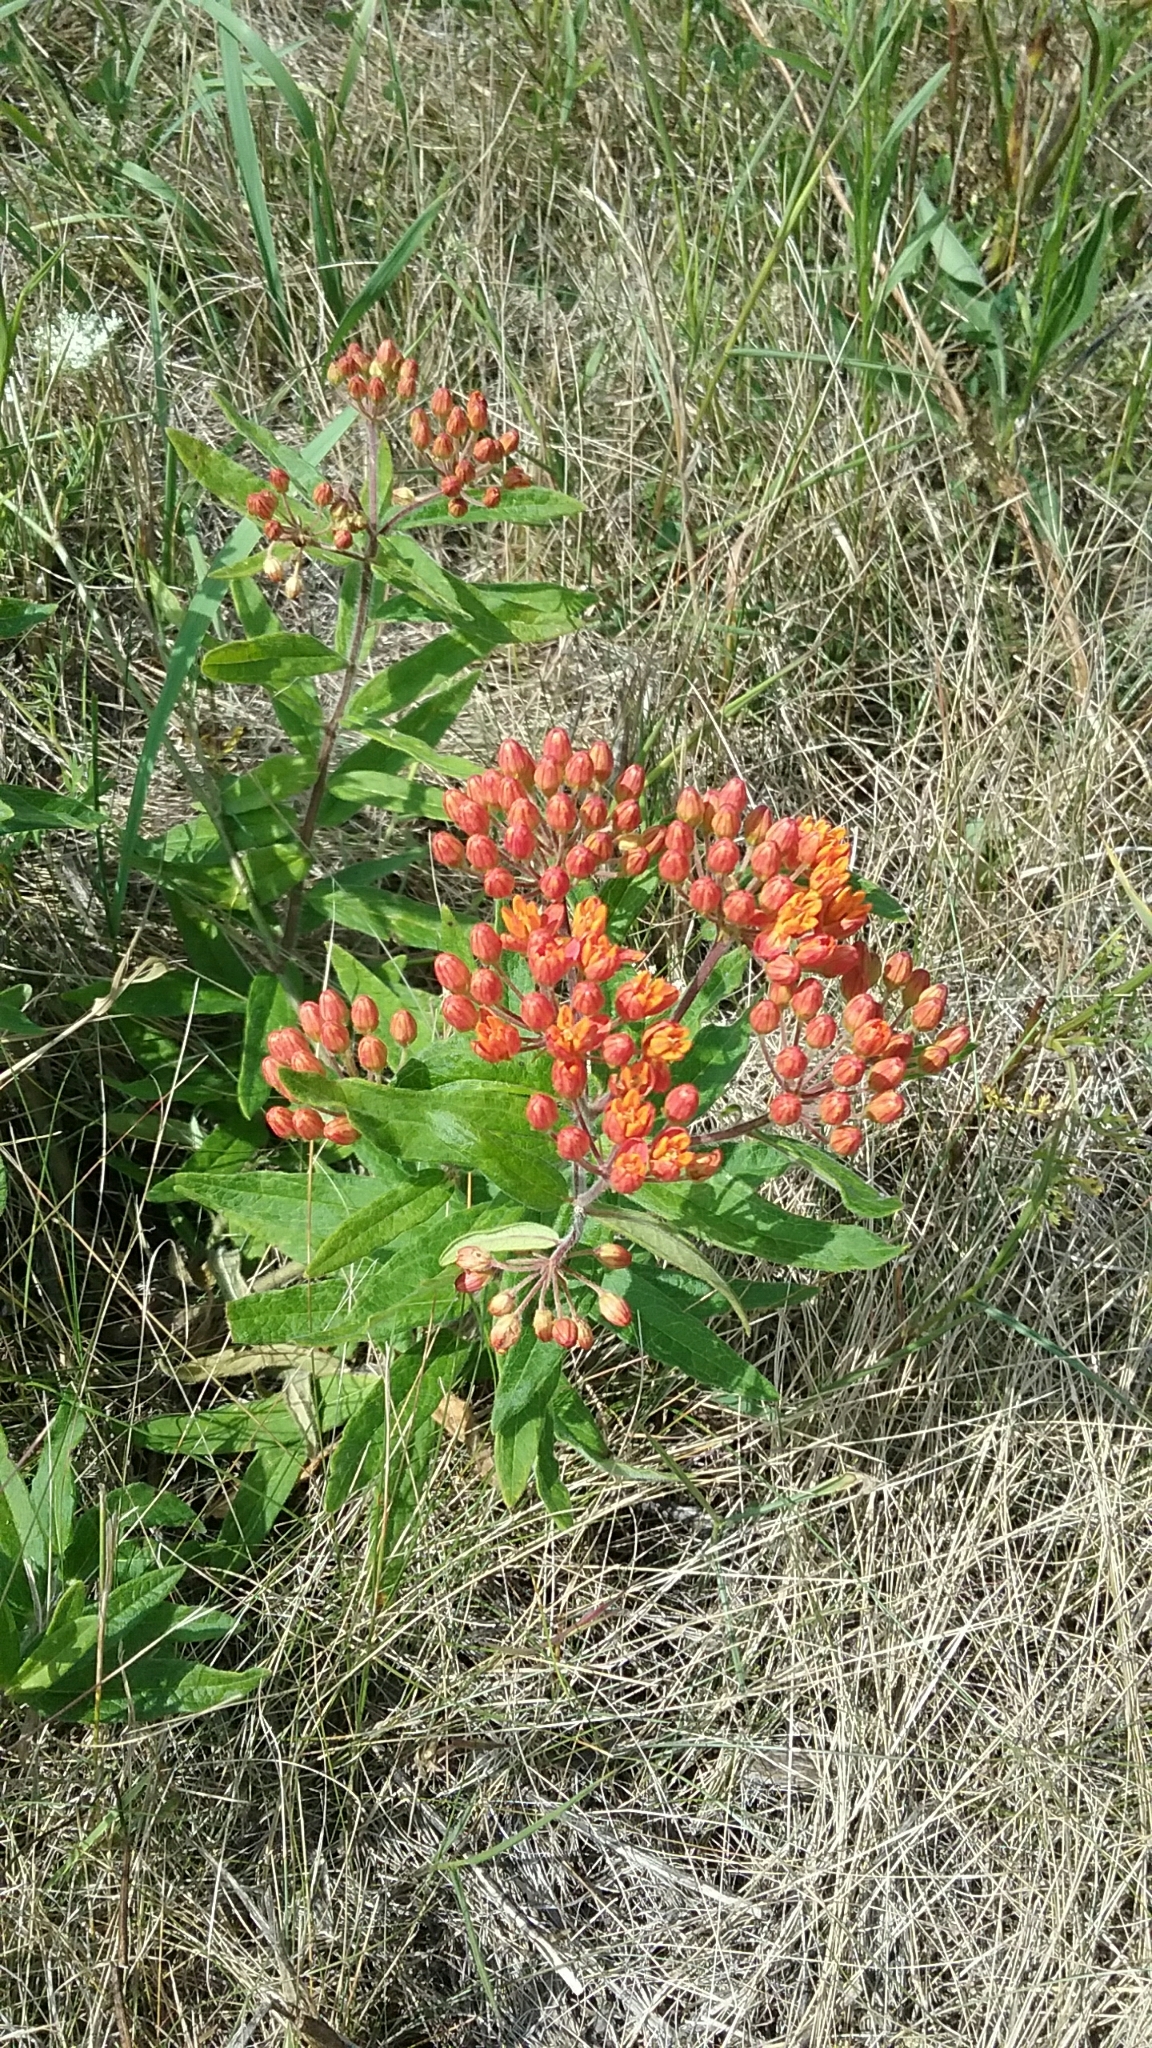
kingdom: Plantae
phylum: Tracheophyta
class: Magnoliopsida
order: Gentianales
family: Apocynaceae
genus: Asclepias
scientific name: Asclepias tuberosa
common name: Butterfly milkweed
